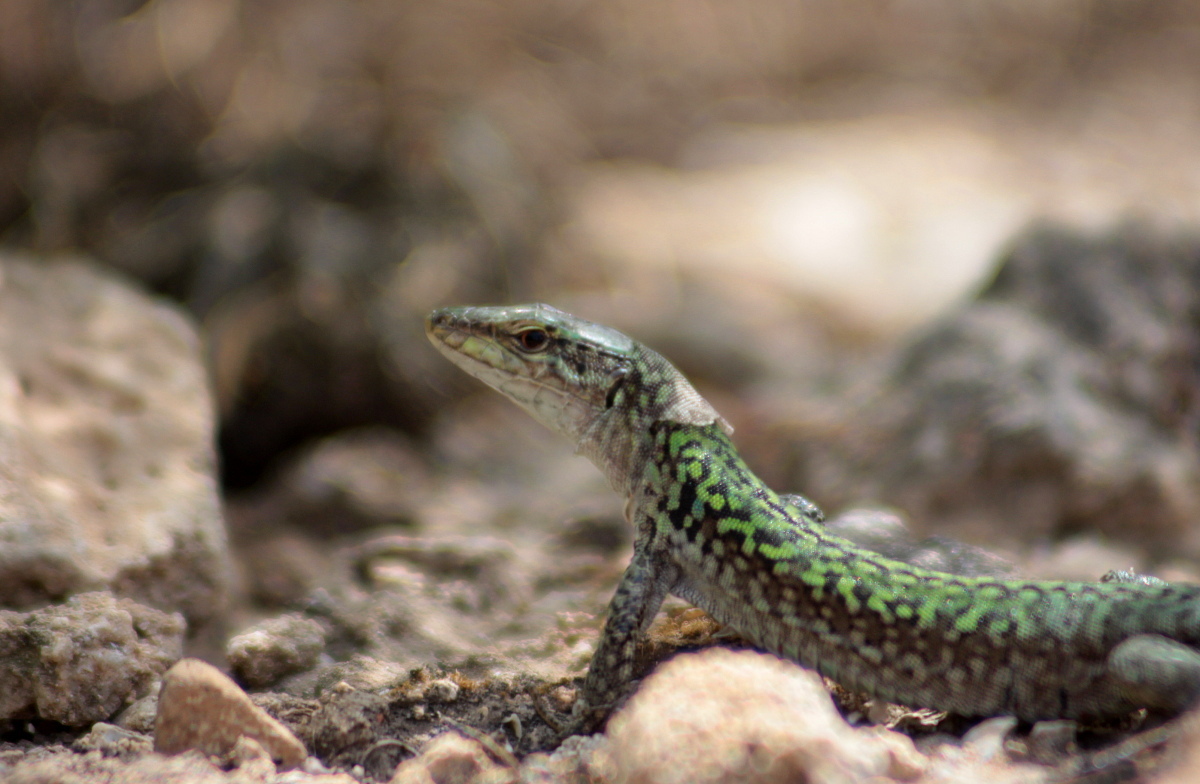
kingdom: Animalia
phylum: Chordata
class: Squamata
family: Lacertidae
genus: Podarcis
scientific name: Podarcis siculus
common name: Italian wall lizard
